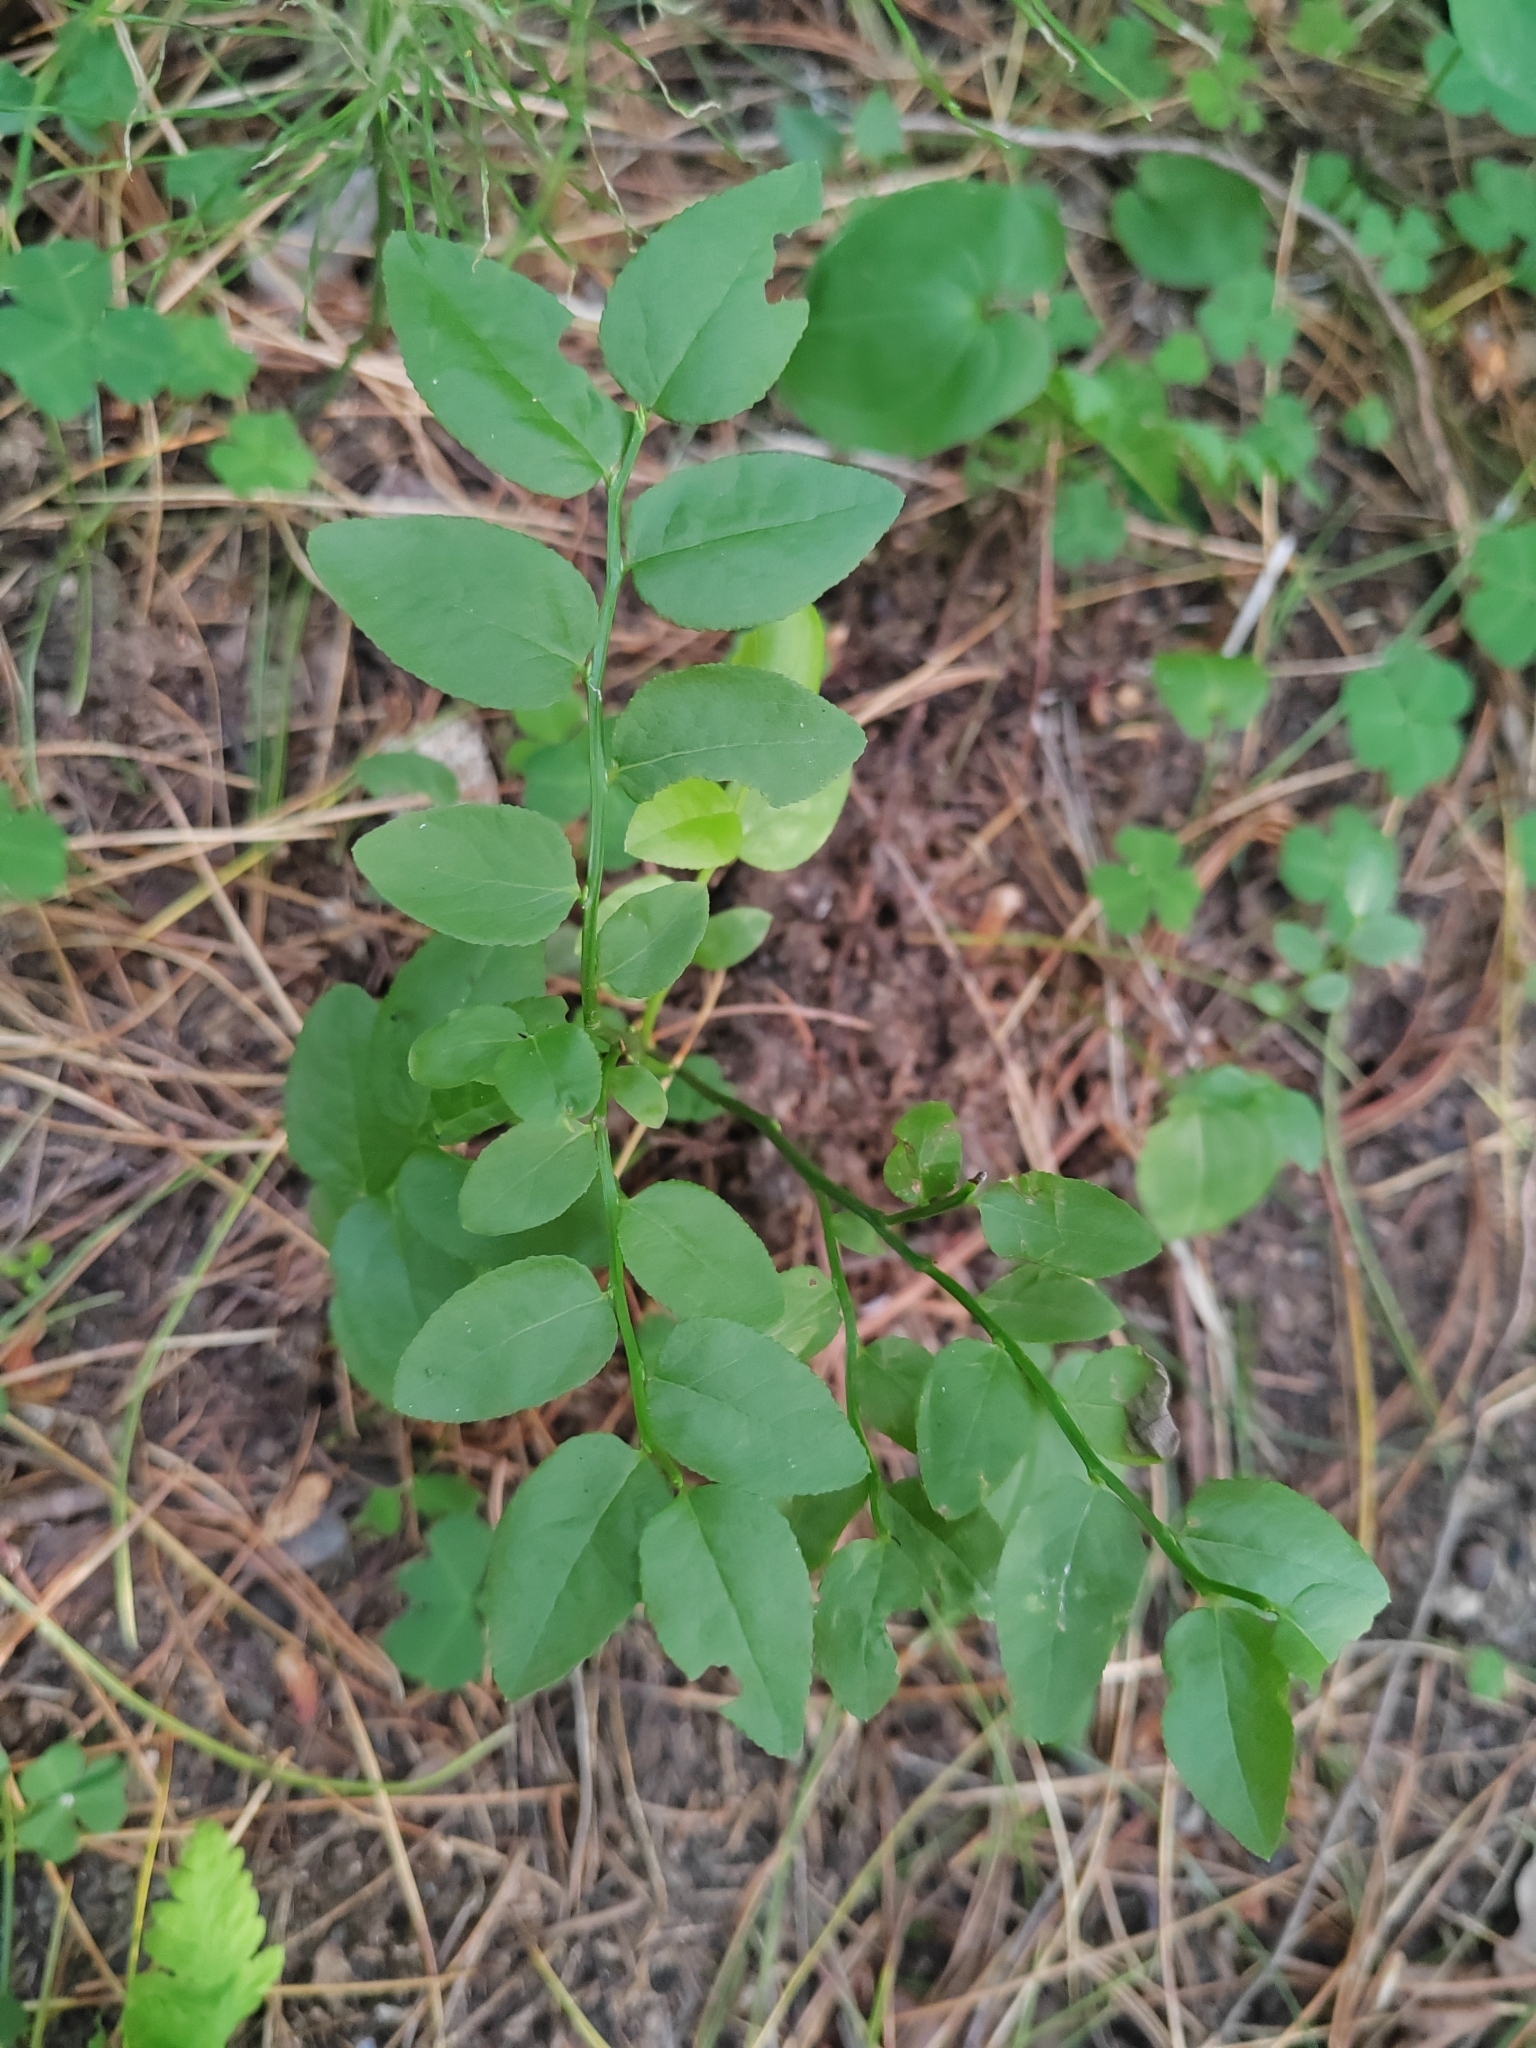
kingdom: Plantae
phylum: Tracheophyta
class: Magnoliopsida
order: Ericales
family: Ericaceae
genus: Vaccinium
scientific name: Vaccinium myrtillus
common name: Bilberry
